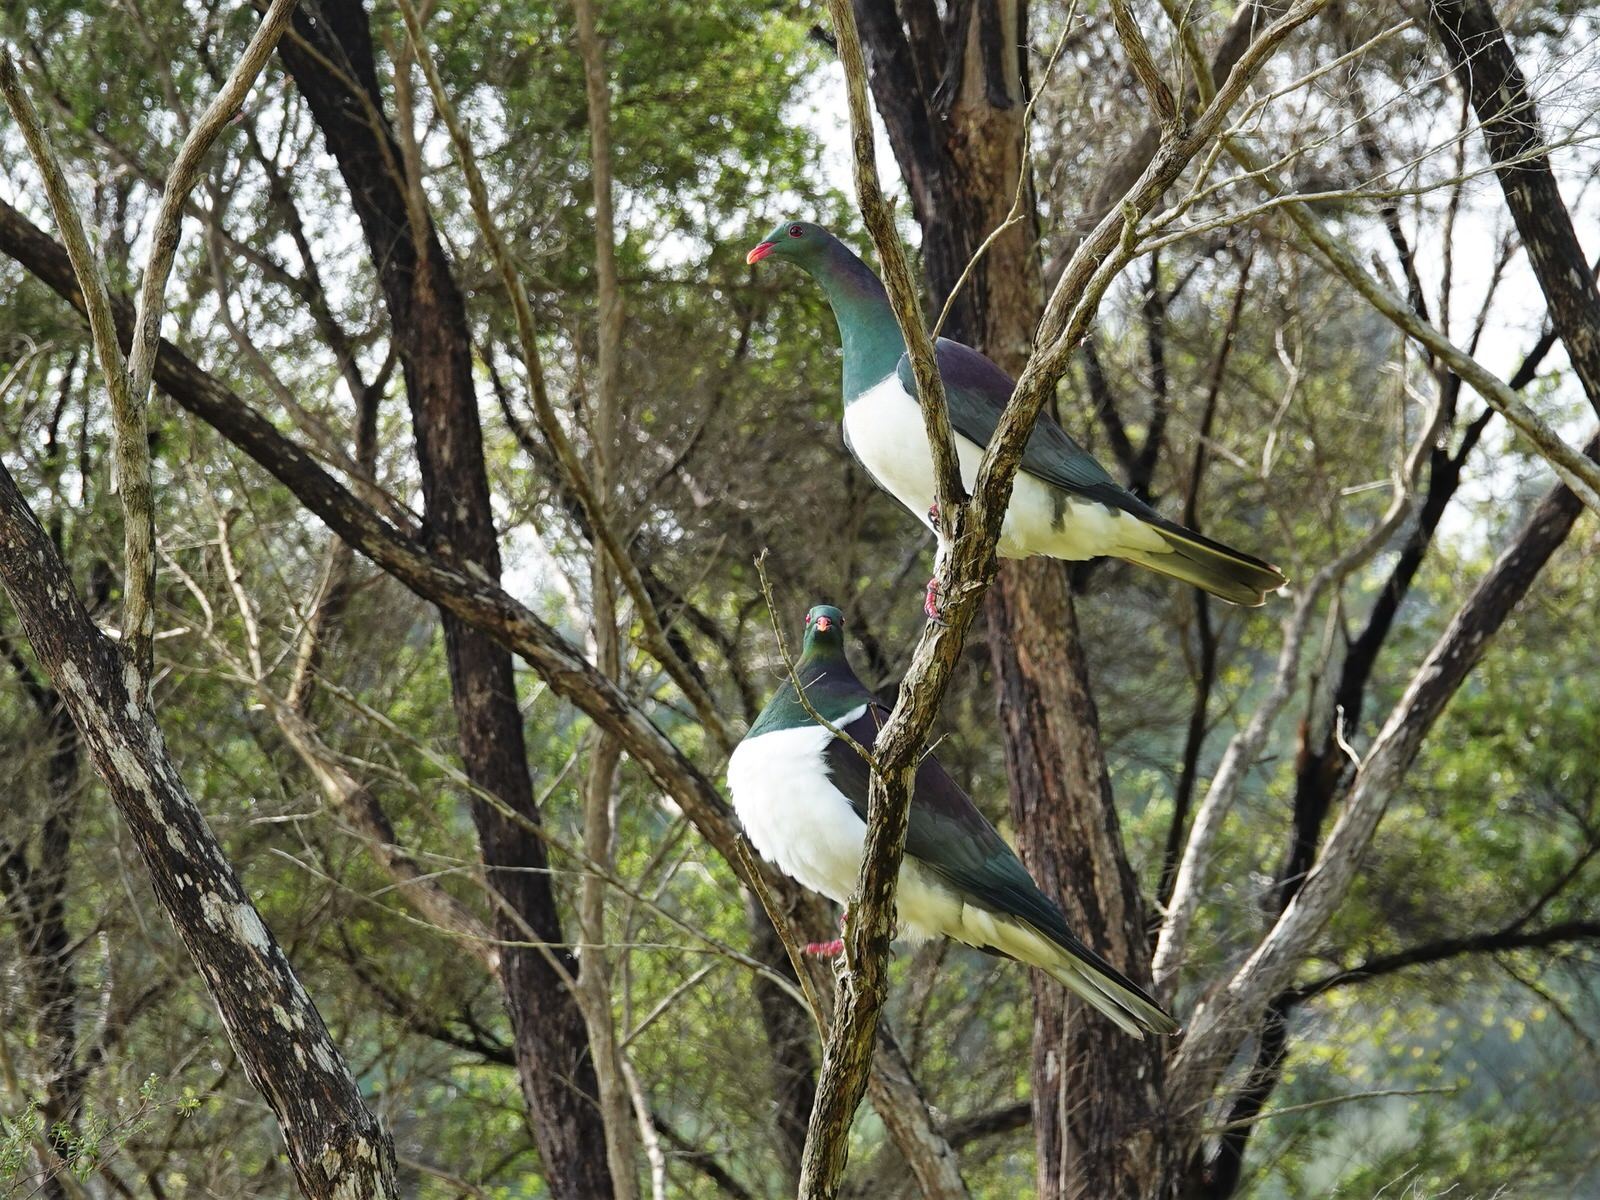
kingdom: Animalia
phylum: Chordata
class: Aves
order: Columbiformes
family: Columbidae
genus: Hemiphaga
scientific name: Hemiphaga novaeseelandiae
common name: New zealand pigeon
